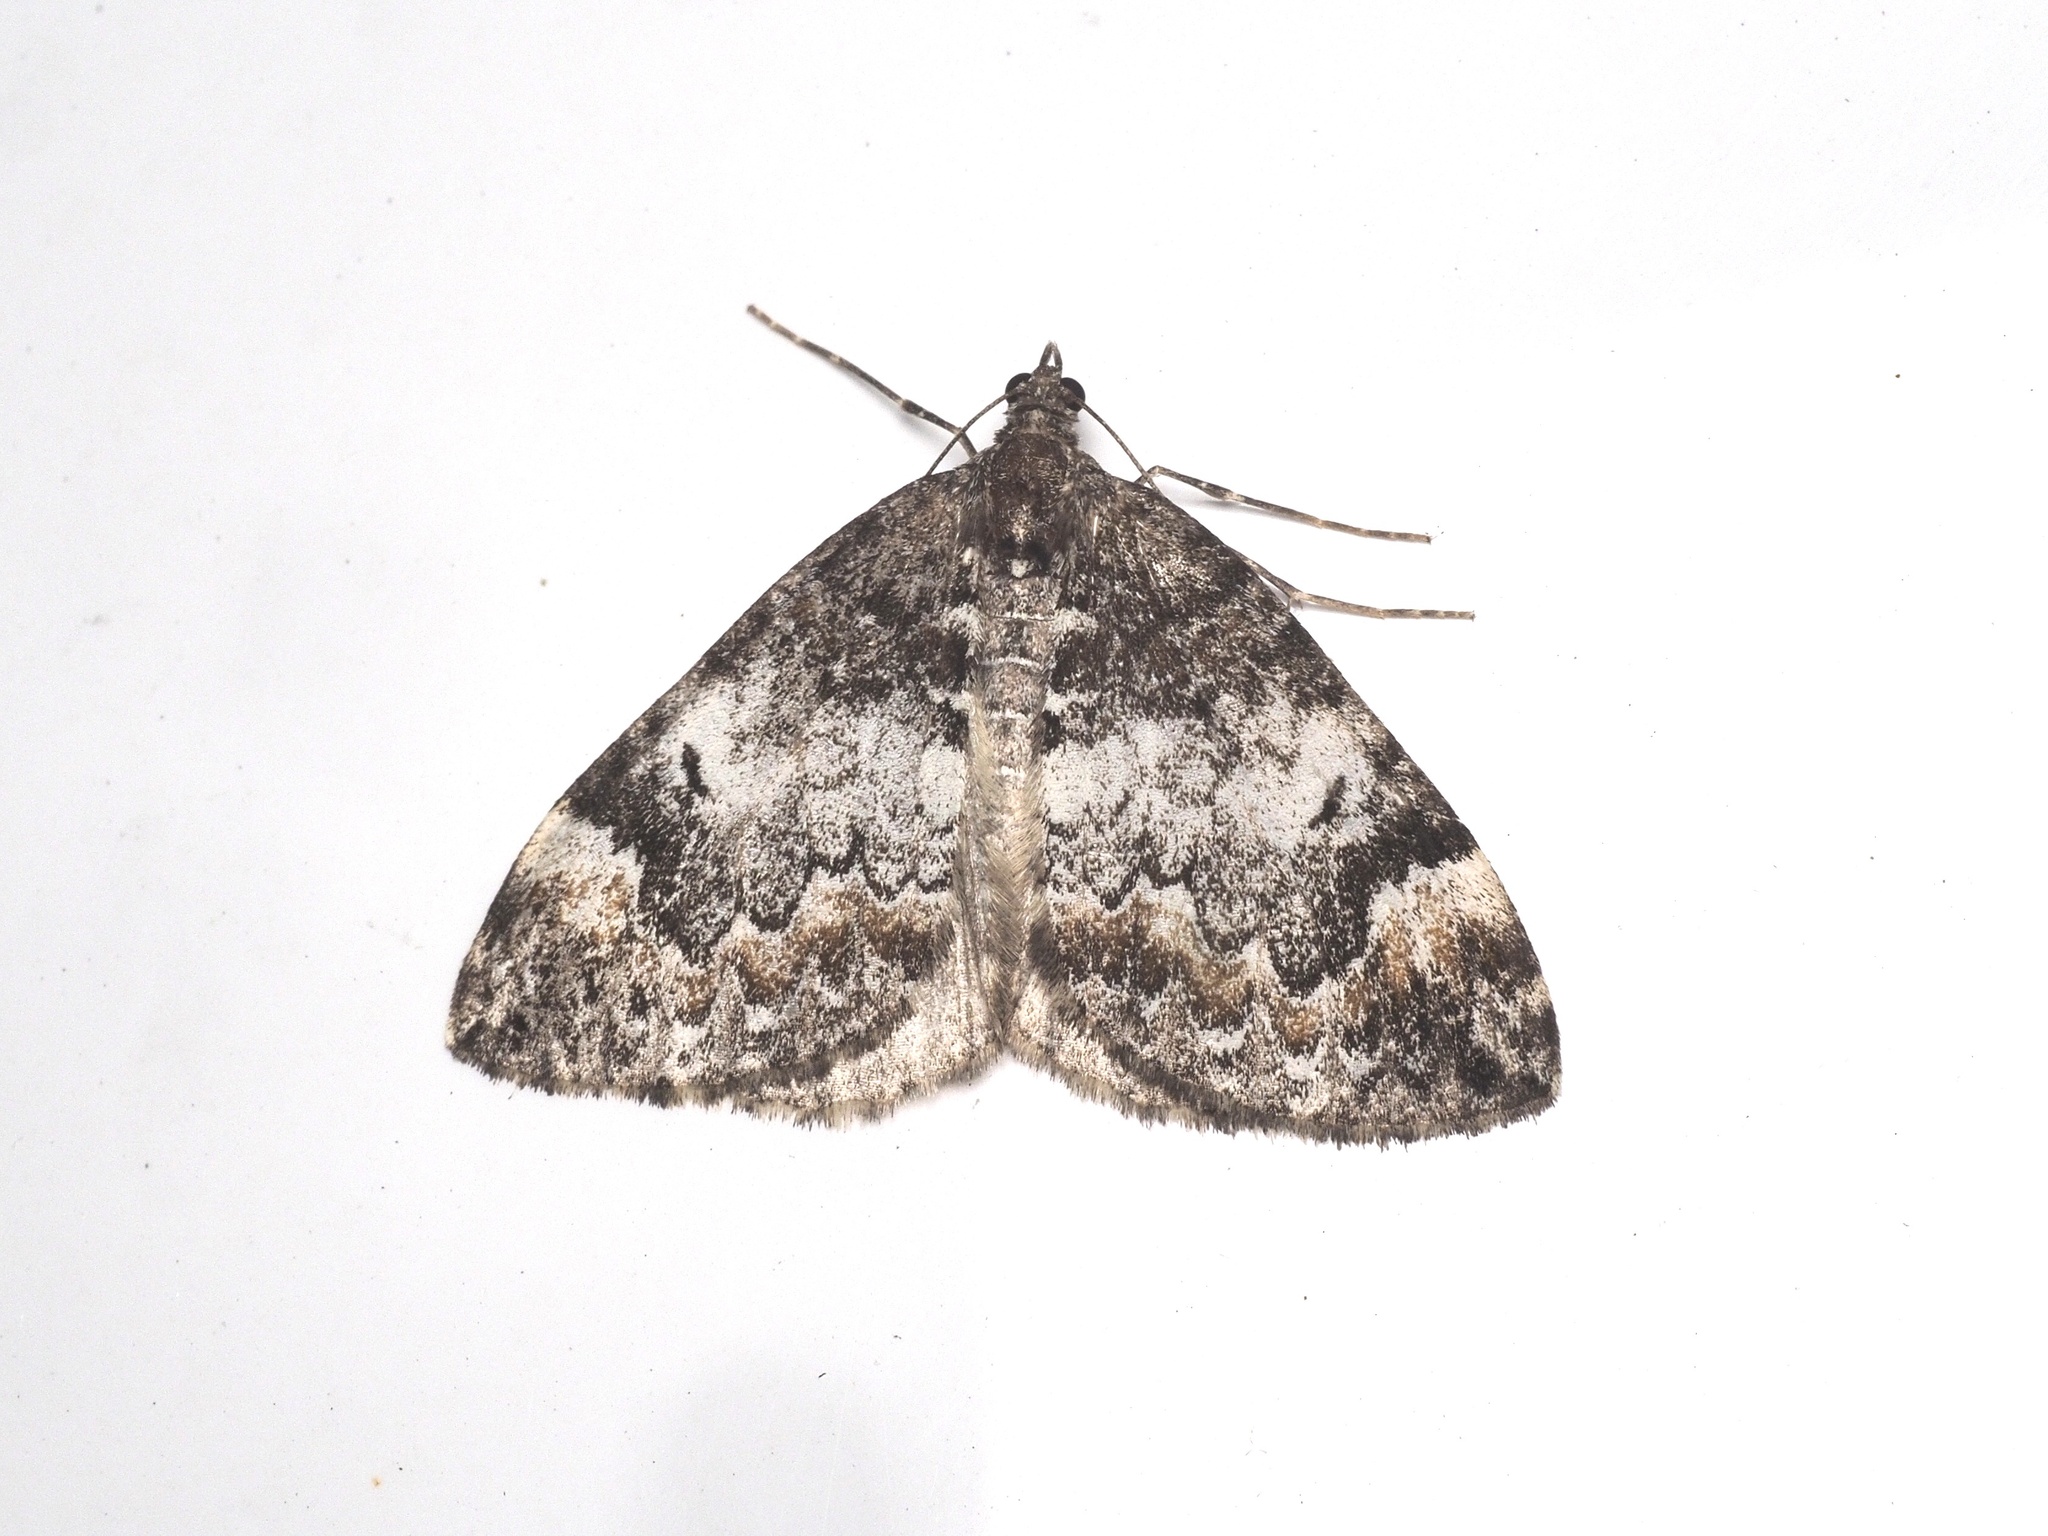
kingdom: Animalia
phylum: Arthropoda
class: Insecta
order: Lepidoptera
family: Geometridae
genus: Dysstroma
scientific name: Dysstroma truncata
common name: Common marbled carpet
